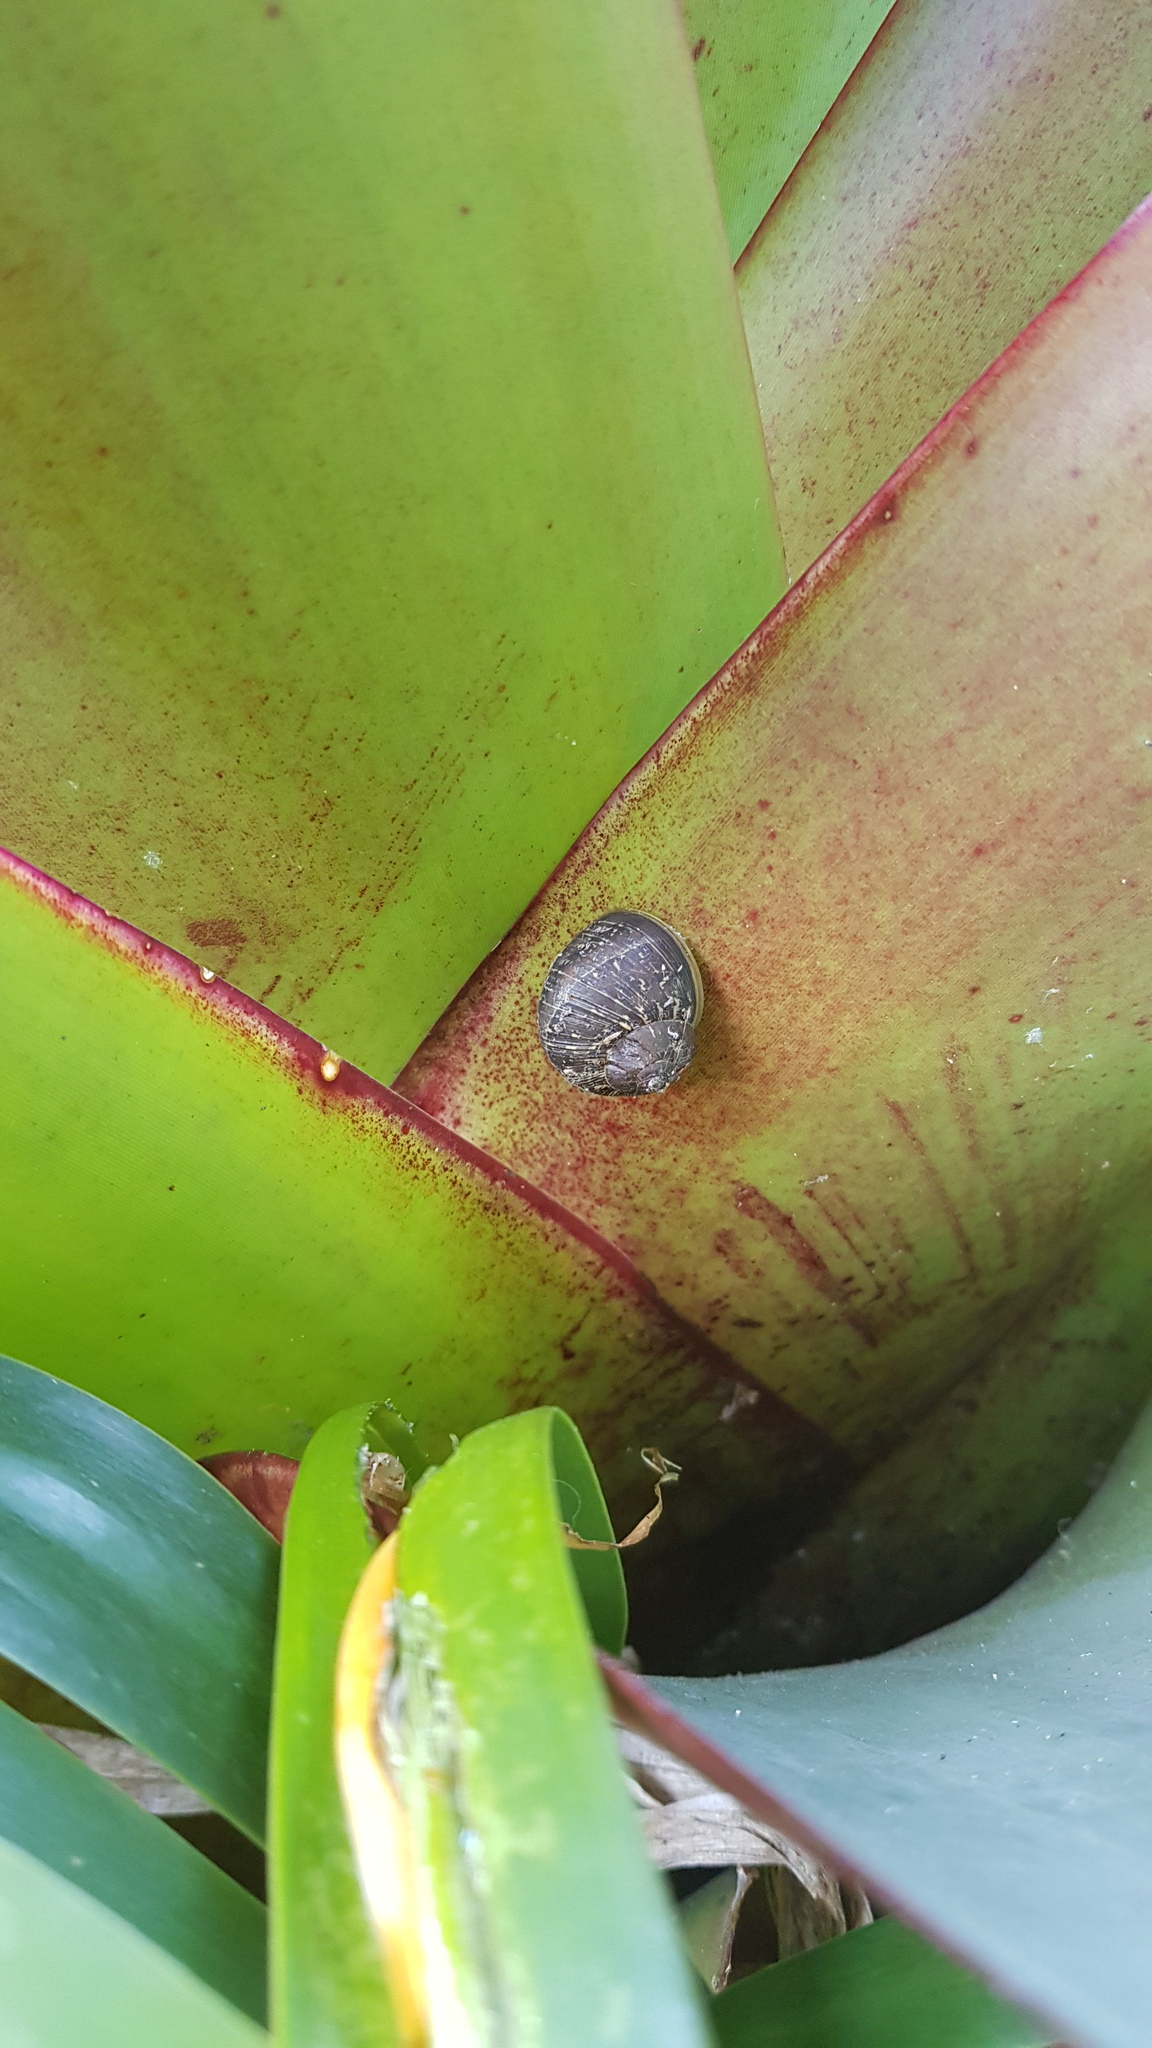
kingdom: Animalia
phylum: Mollusca
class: Gastropoda
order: Stylommatophora
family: Helicidae
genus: Cornu
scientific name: Cornu aspersum
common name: Brown garden snail
